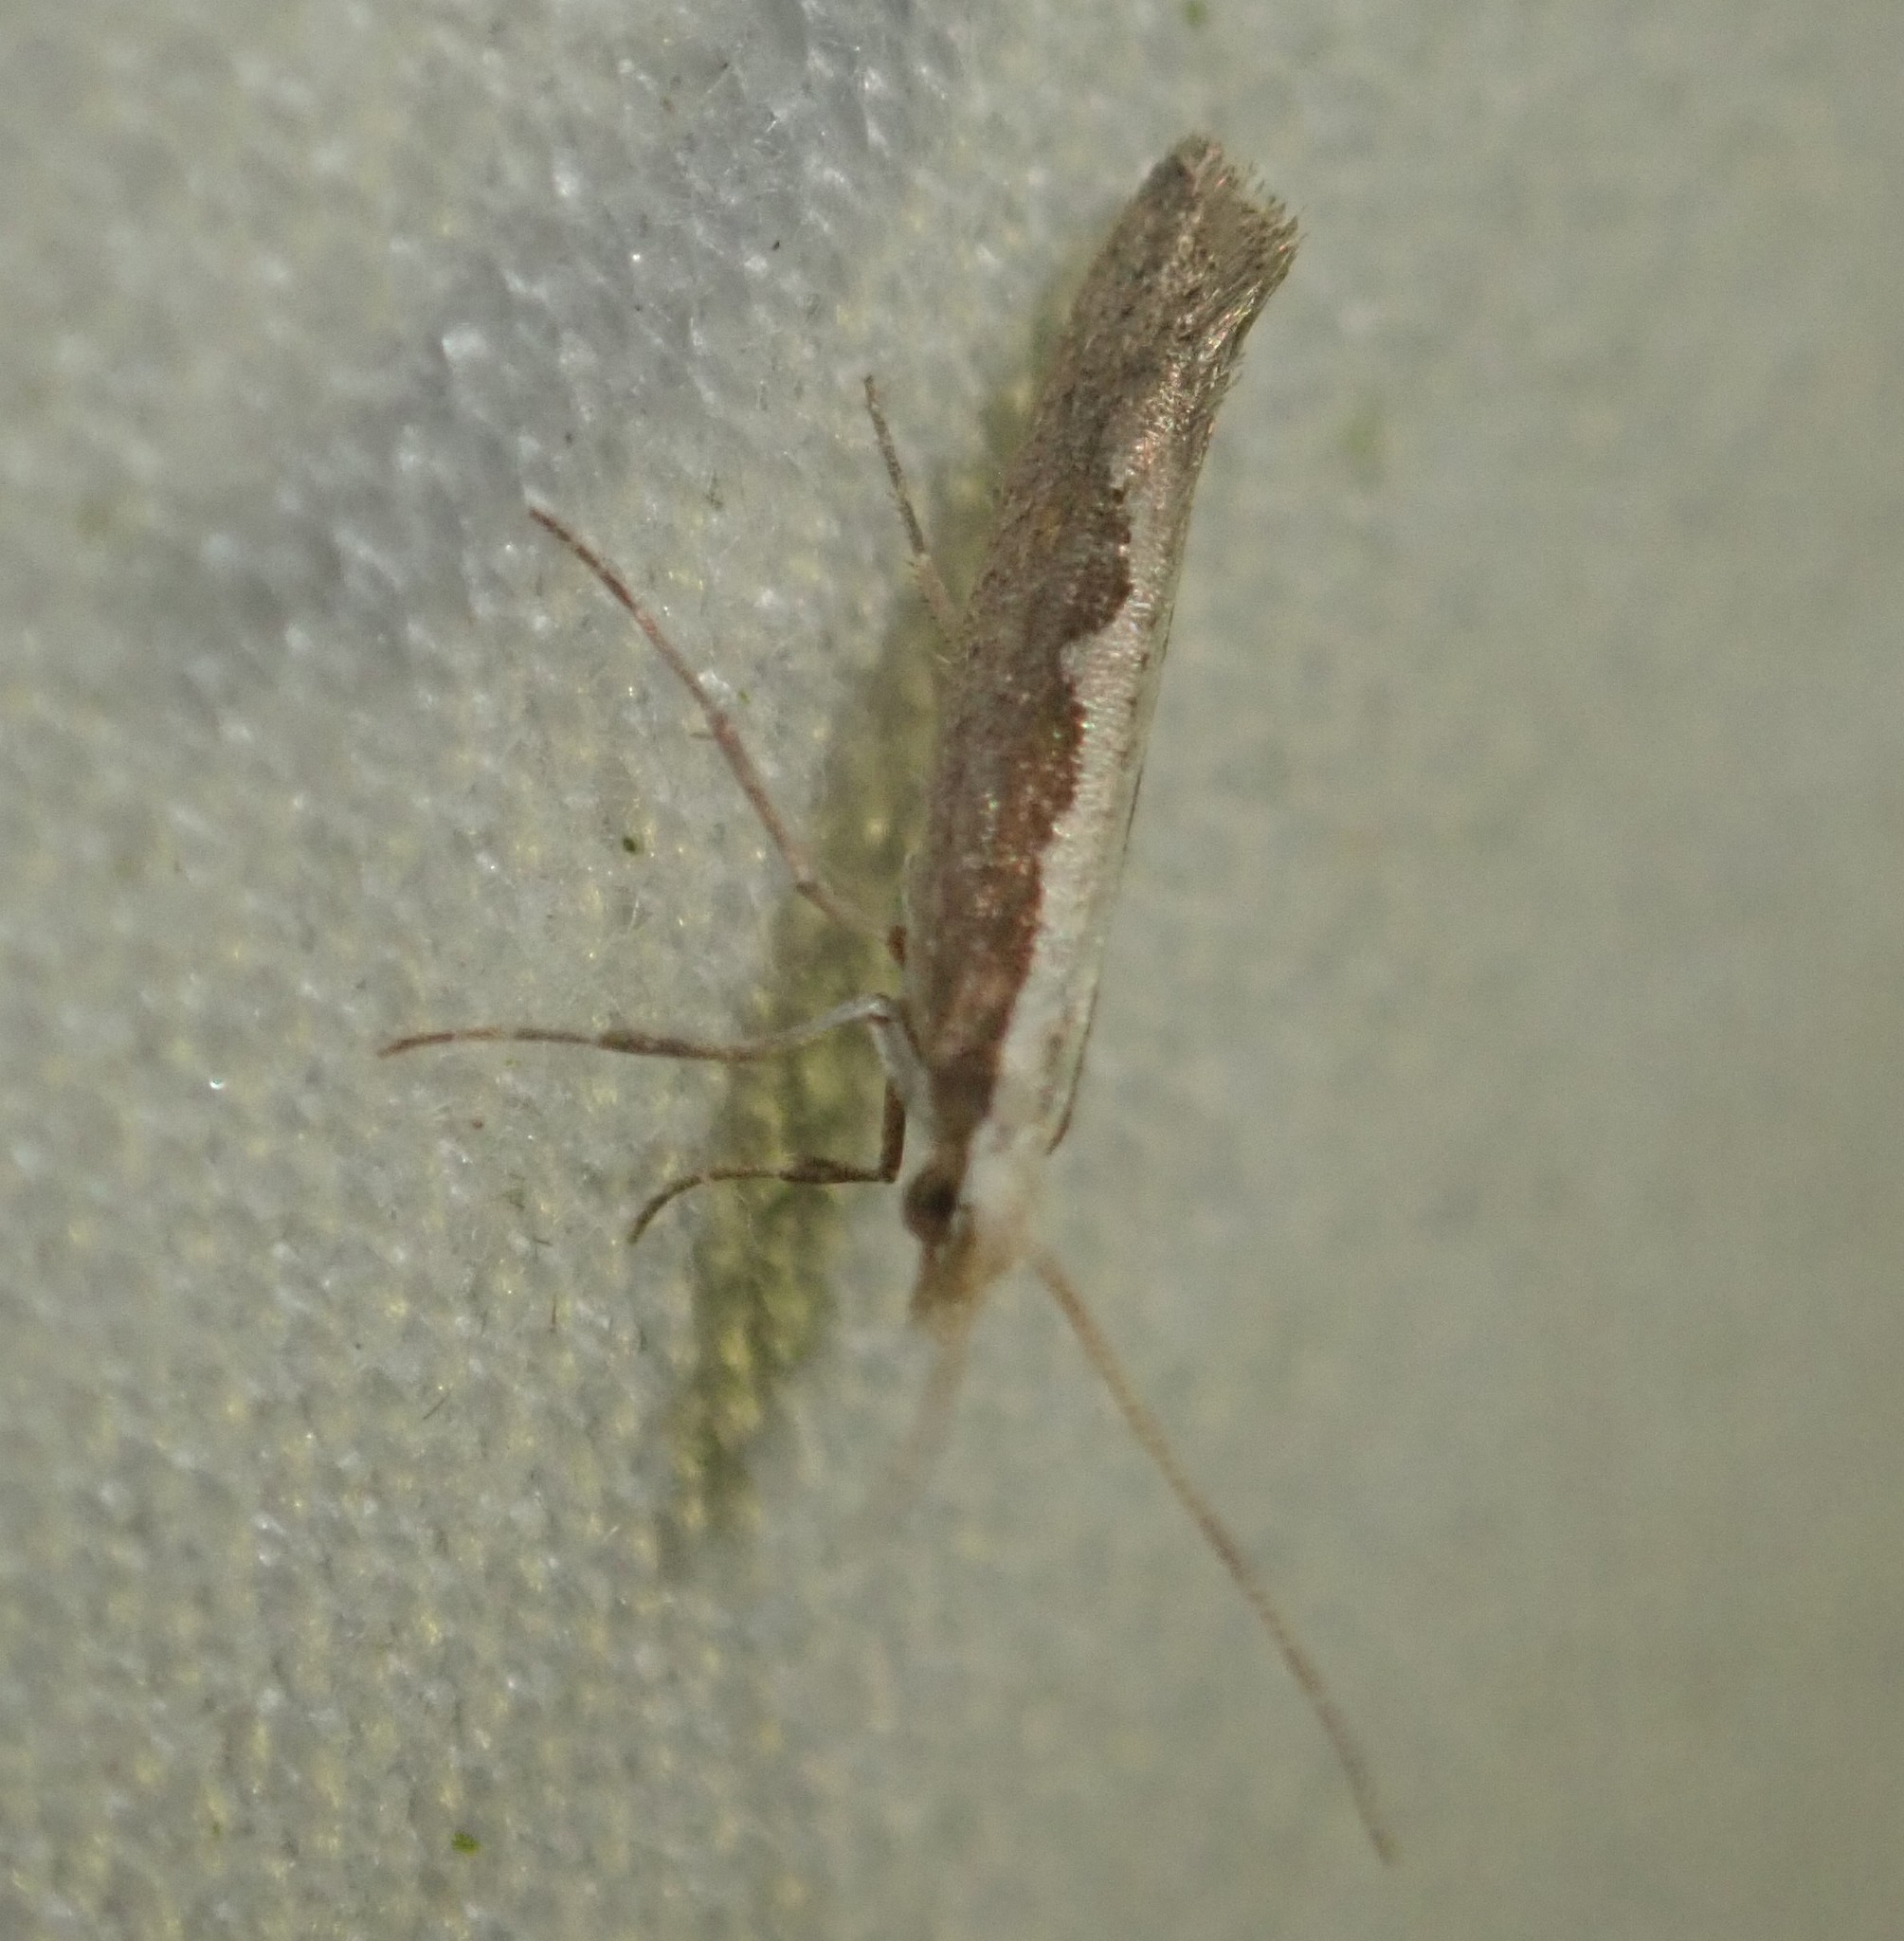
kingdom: Animalia
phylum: Arthropoda
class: Insecta
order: Lepidoptera
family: Plutellidae
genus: Plutella
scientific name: Plutella xylostella
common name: Diamond-back moth
